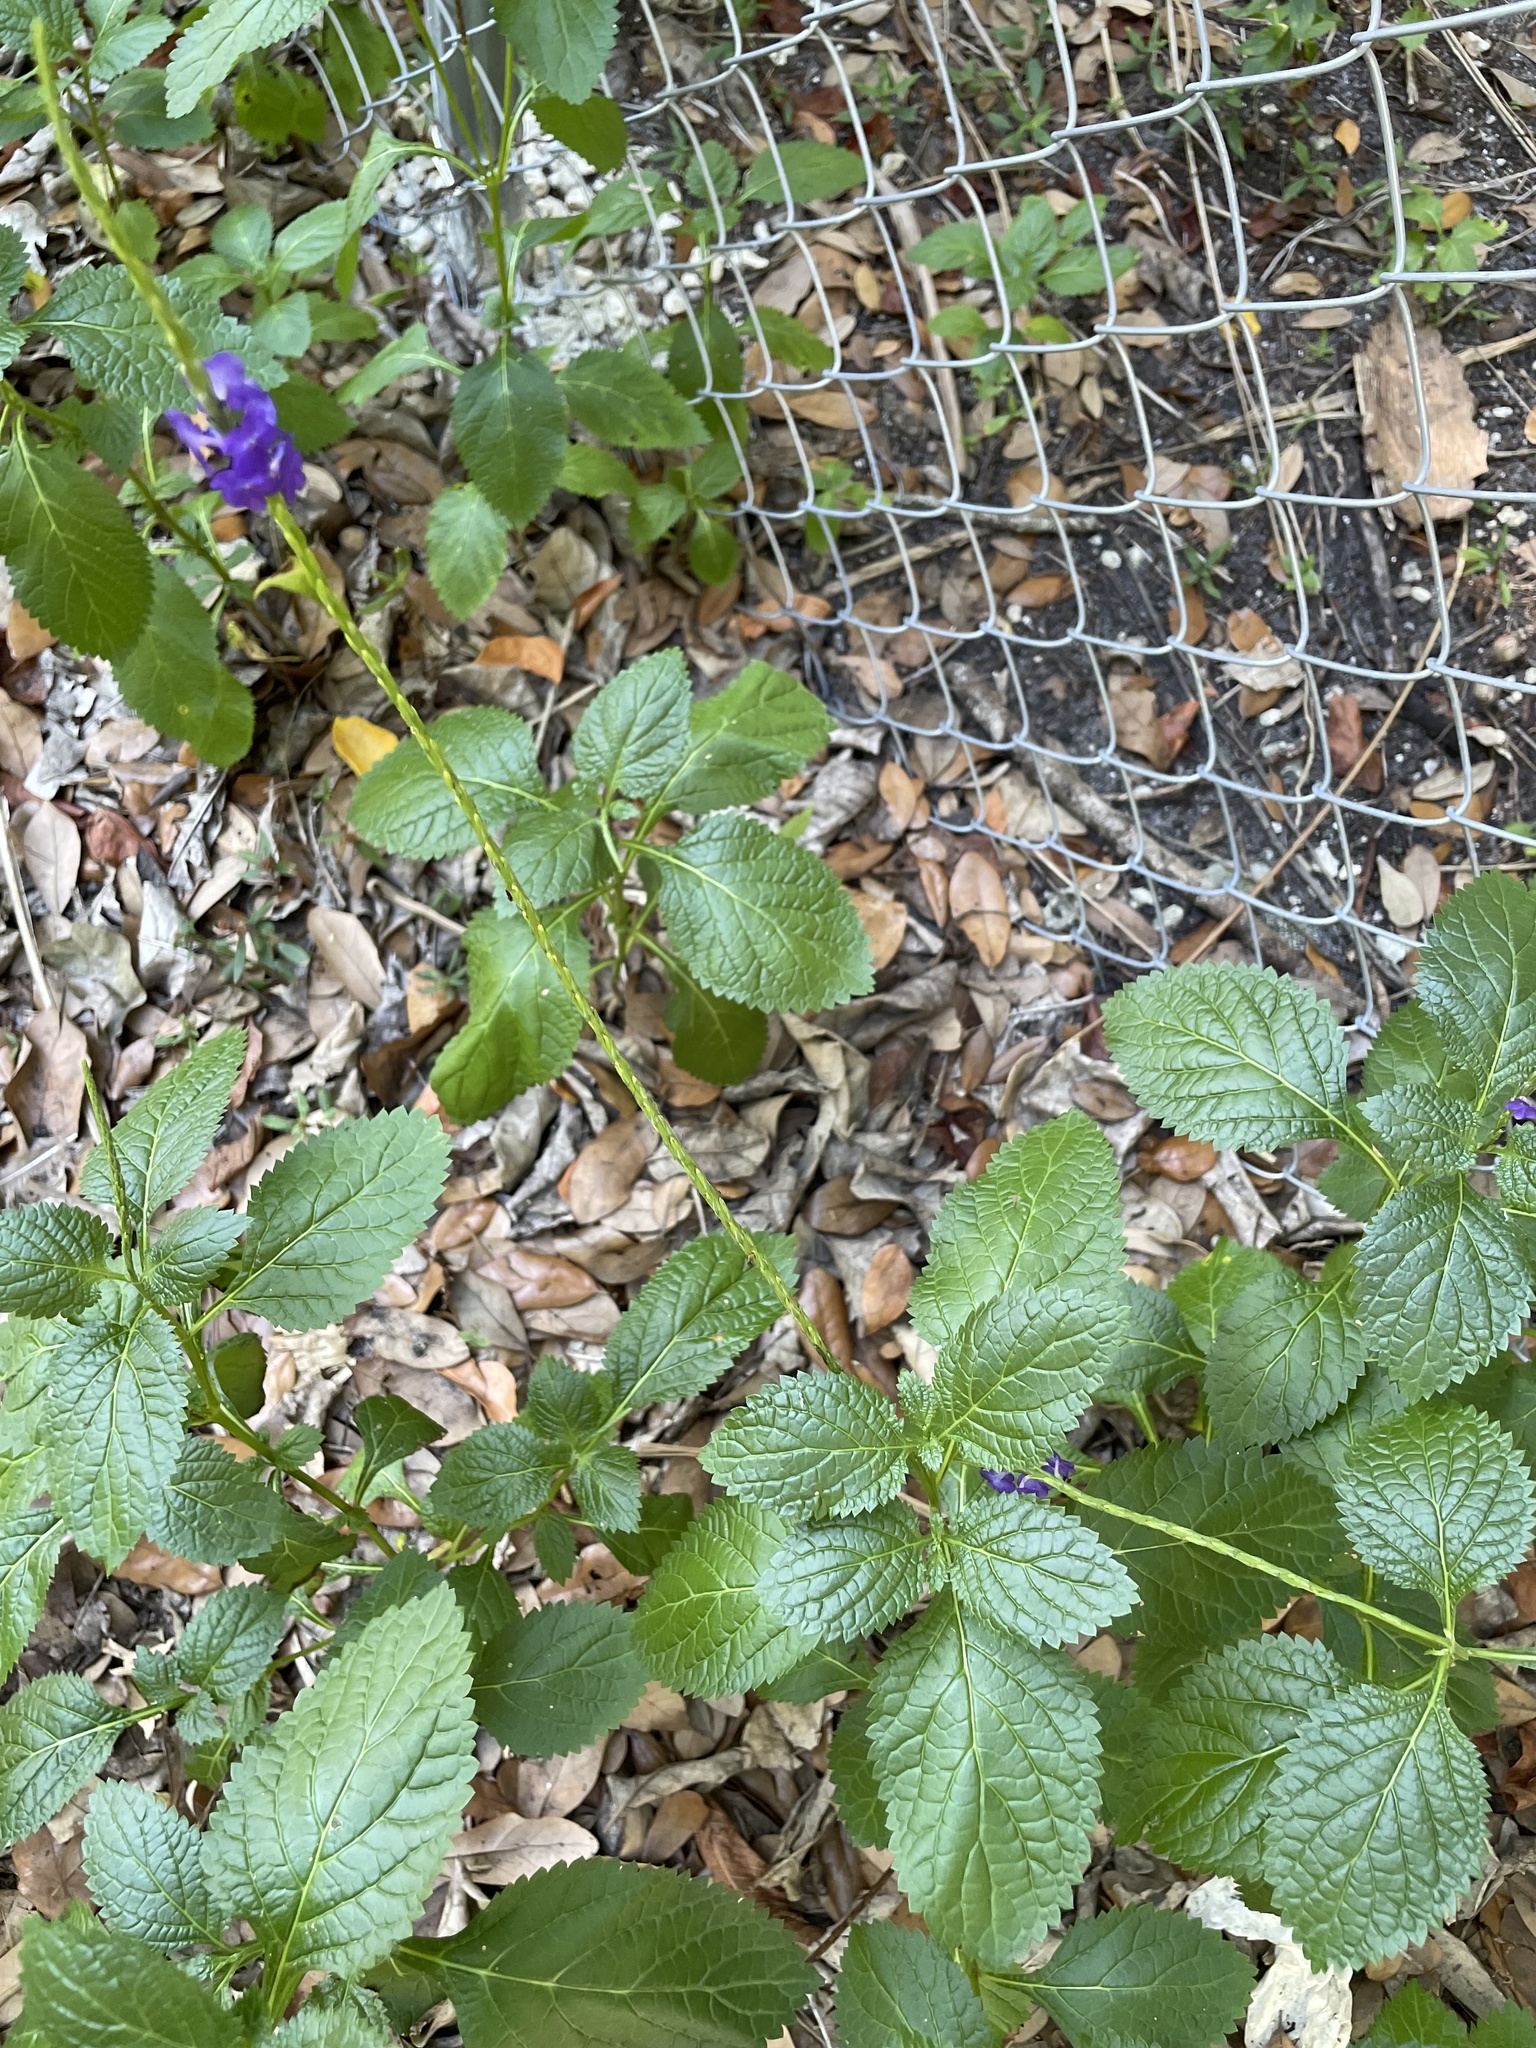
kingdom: Plantae
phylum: Tracheophyta
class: Magnoliopsida
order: Lamiales
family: Verbenaceae
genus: Stachytarpheta
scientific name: Stachytarpheta cayennensis
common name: Cayenne porterweed
